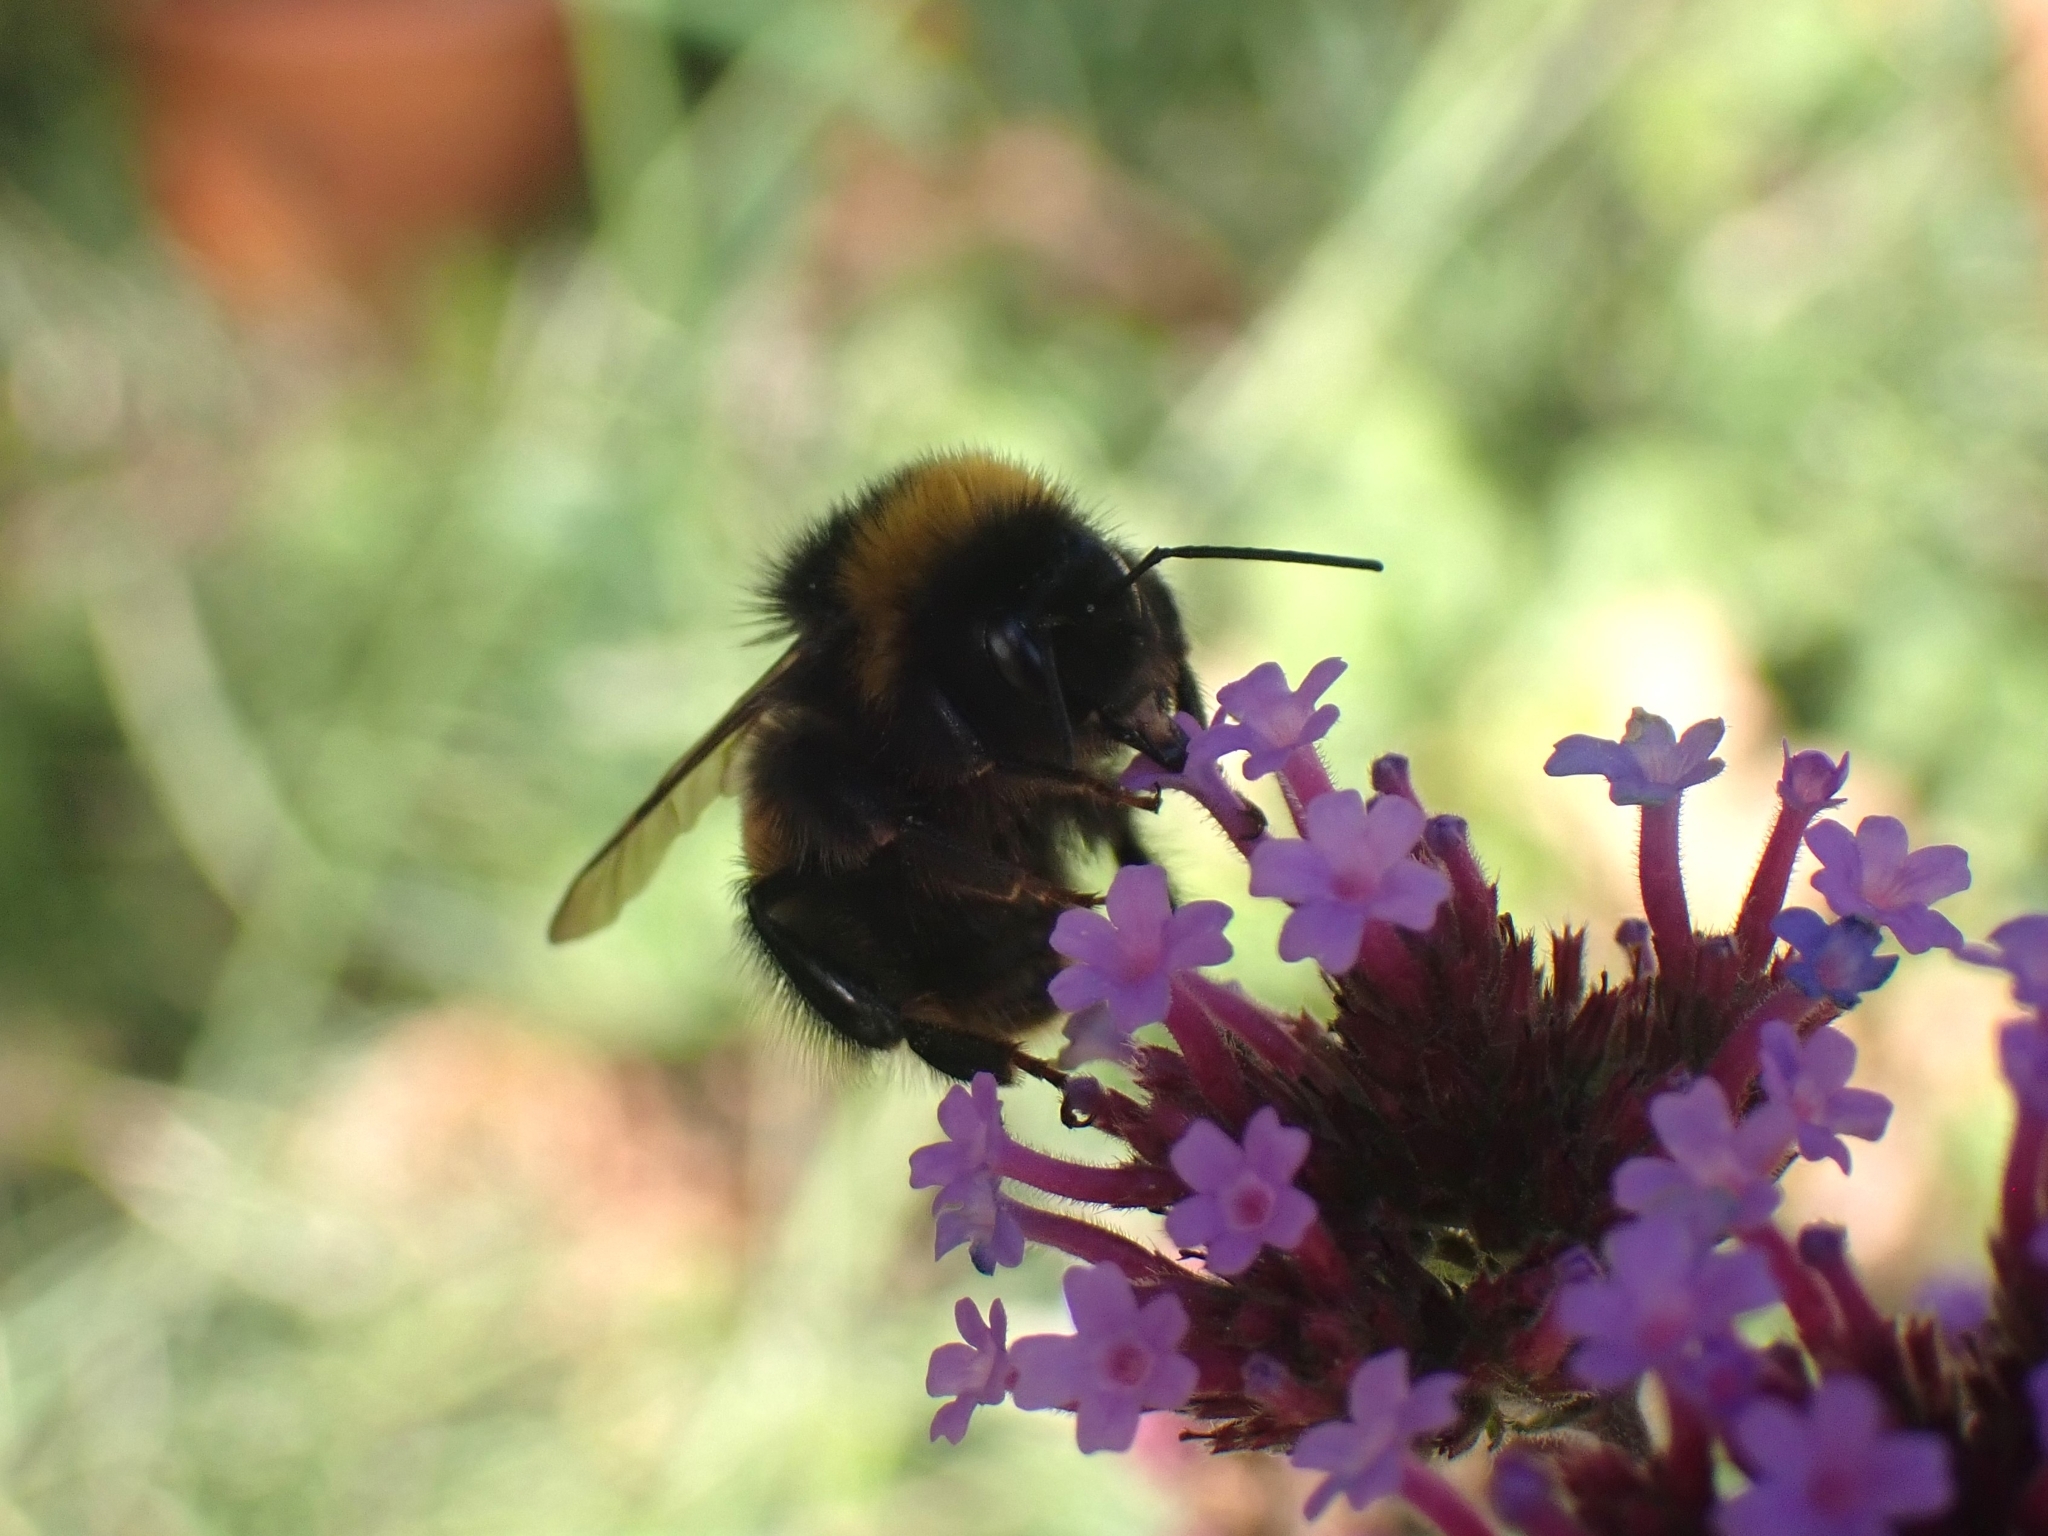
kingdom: Animalia
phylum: Arthropoda
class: Insecta
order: Hymenoptera
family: Apidae
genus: Bombus
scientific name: Bombus terrestris
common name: Buff-tailed bumblebee
